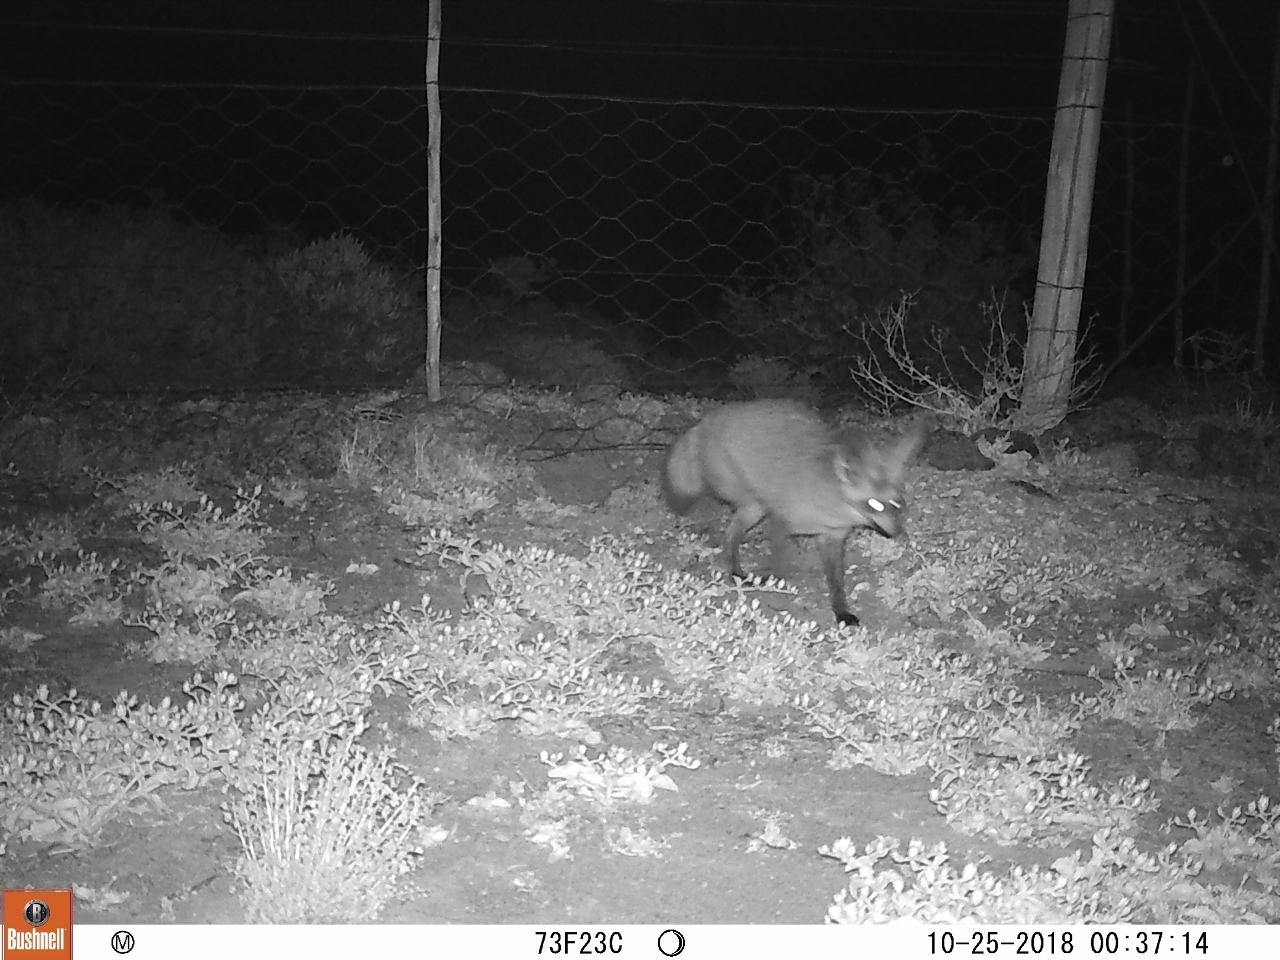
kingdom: Animalia
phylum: Chordata
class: Mammalia
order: Carnivora
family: Canidae
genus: Otocyon
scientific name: Otocyon megalotis
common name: Bat-eared fox
